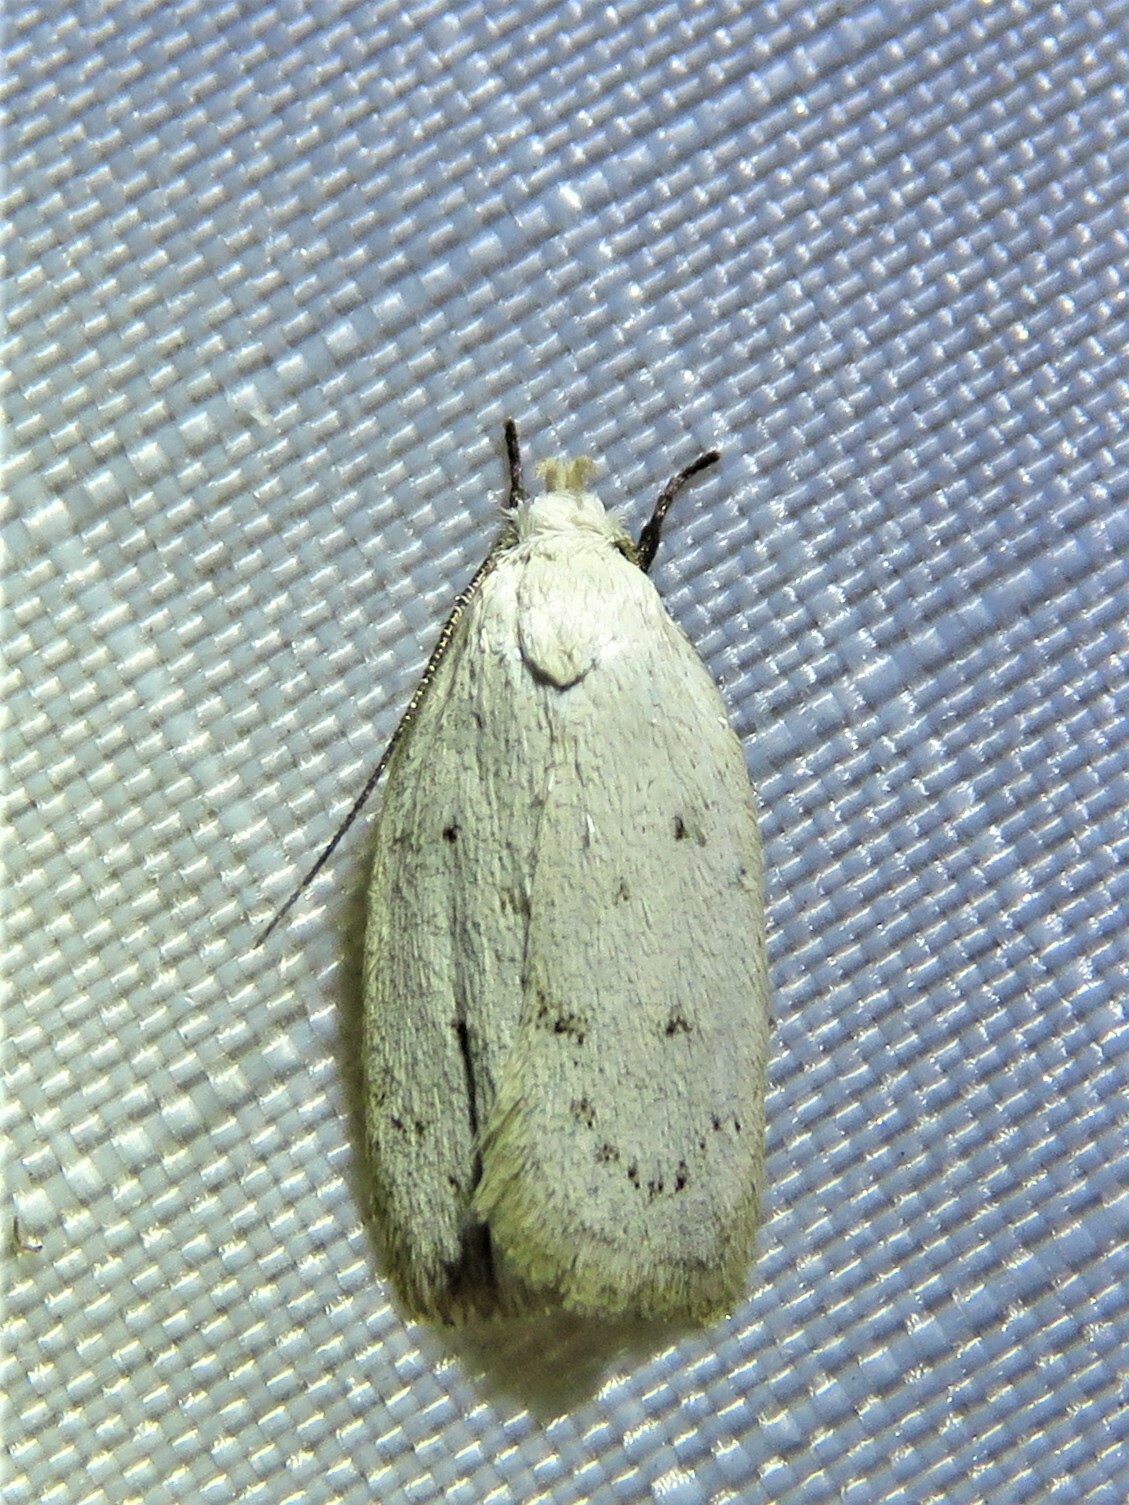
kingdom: Animalia
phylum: Arthropoda
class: Insecta
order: Lepidoptera
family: Oecophoridae
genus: Inga
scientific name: Inga cretacea
